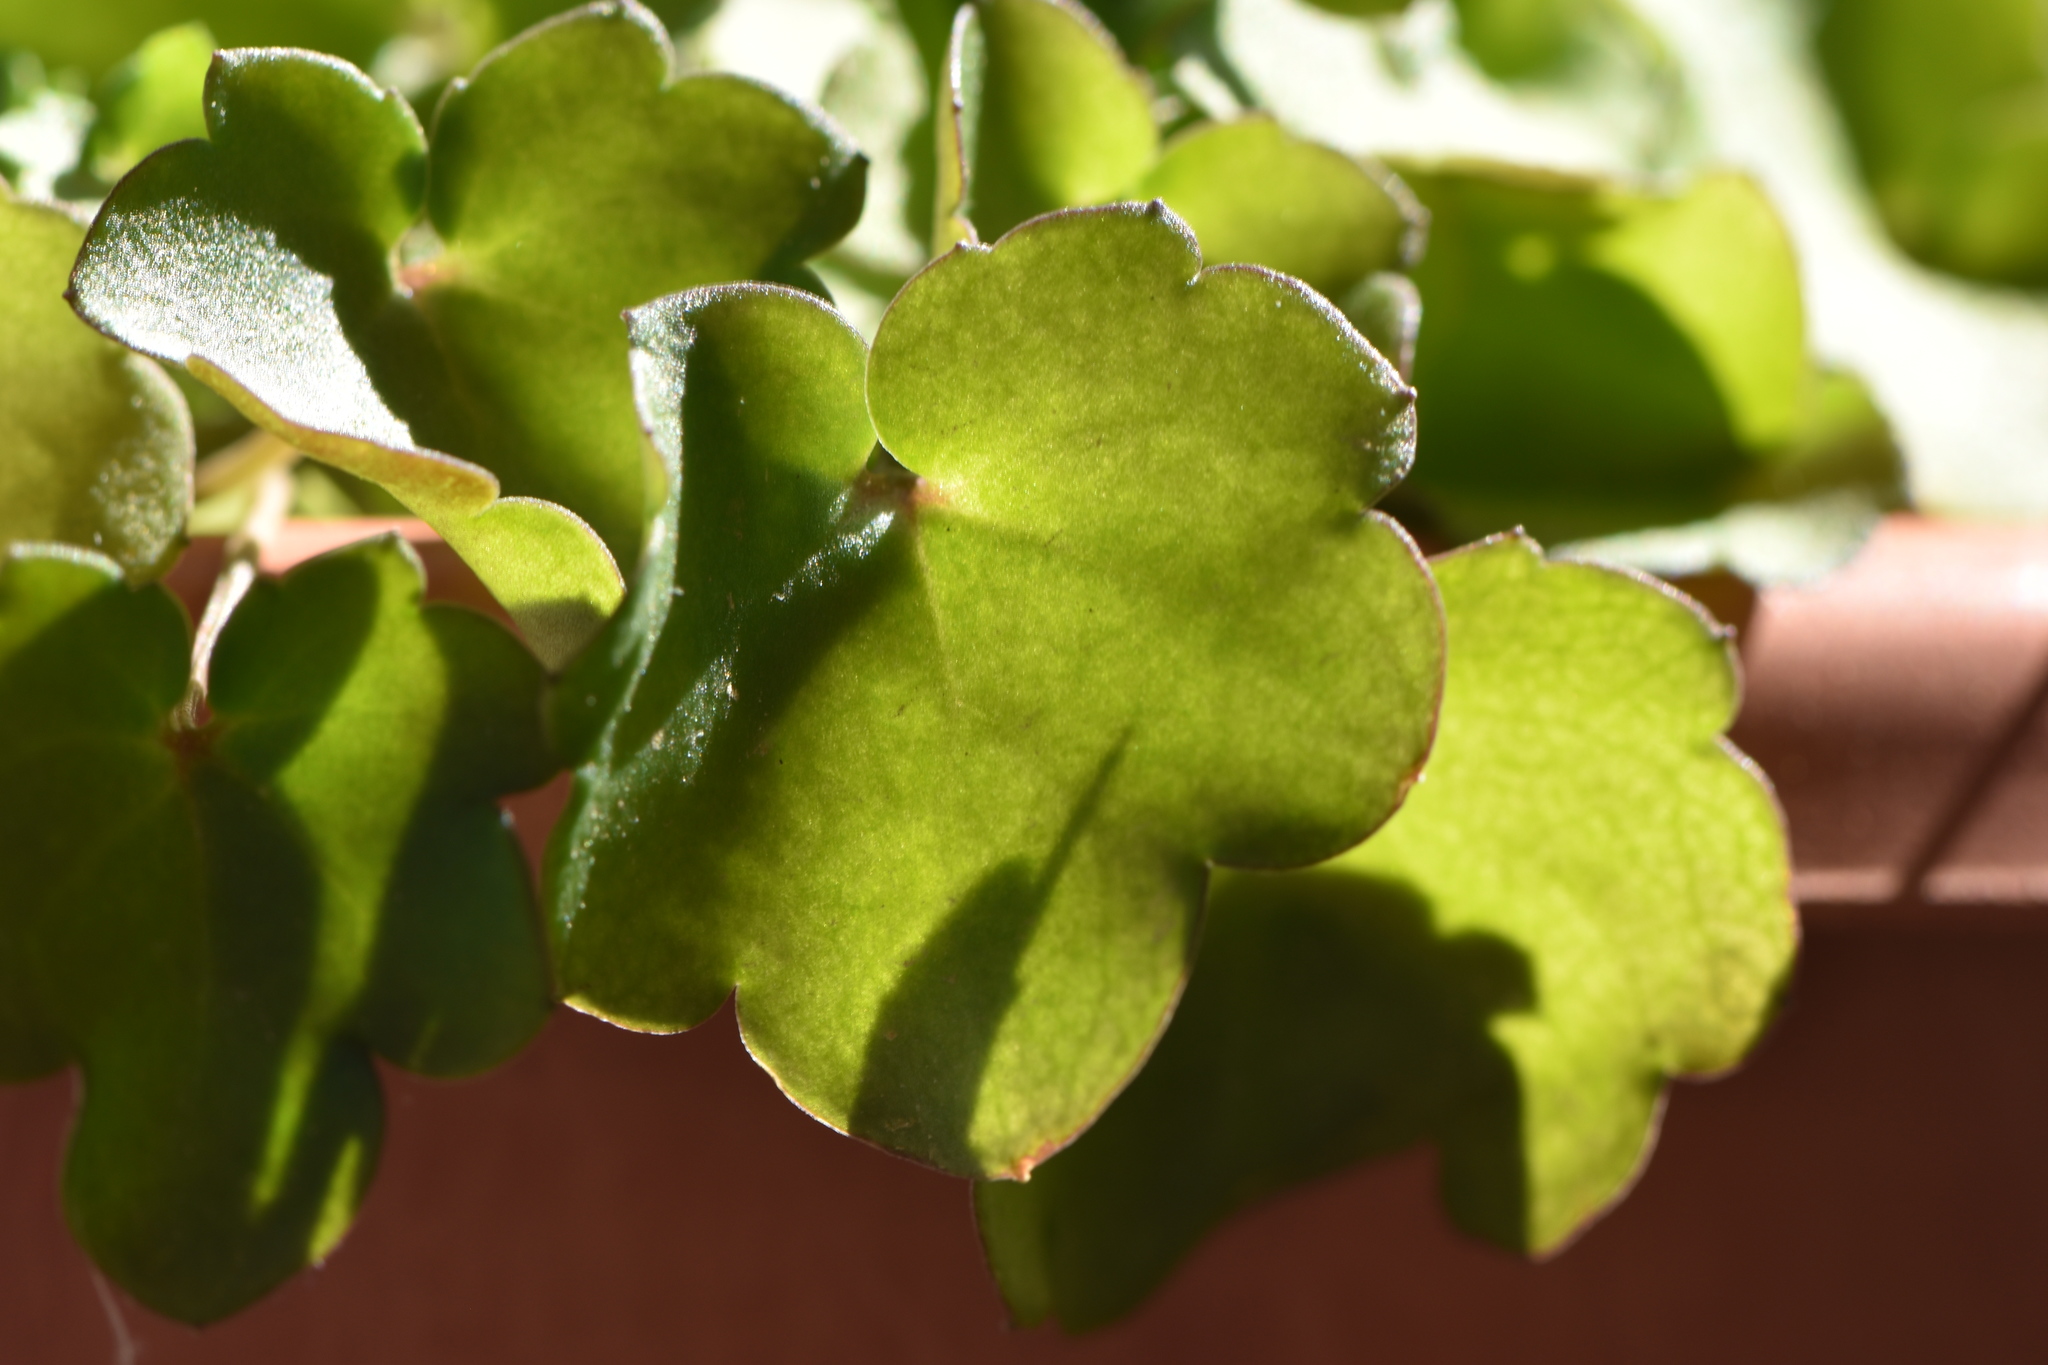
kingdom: Plantae
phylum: Tracheophyta
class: Magnoliopsida
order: Lamiales
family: Plantaginaceae
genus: Cymbalaria
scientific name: Cymbalaria muralis
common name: Ivy-leaved toadflax
